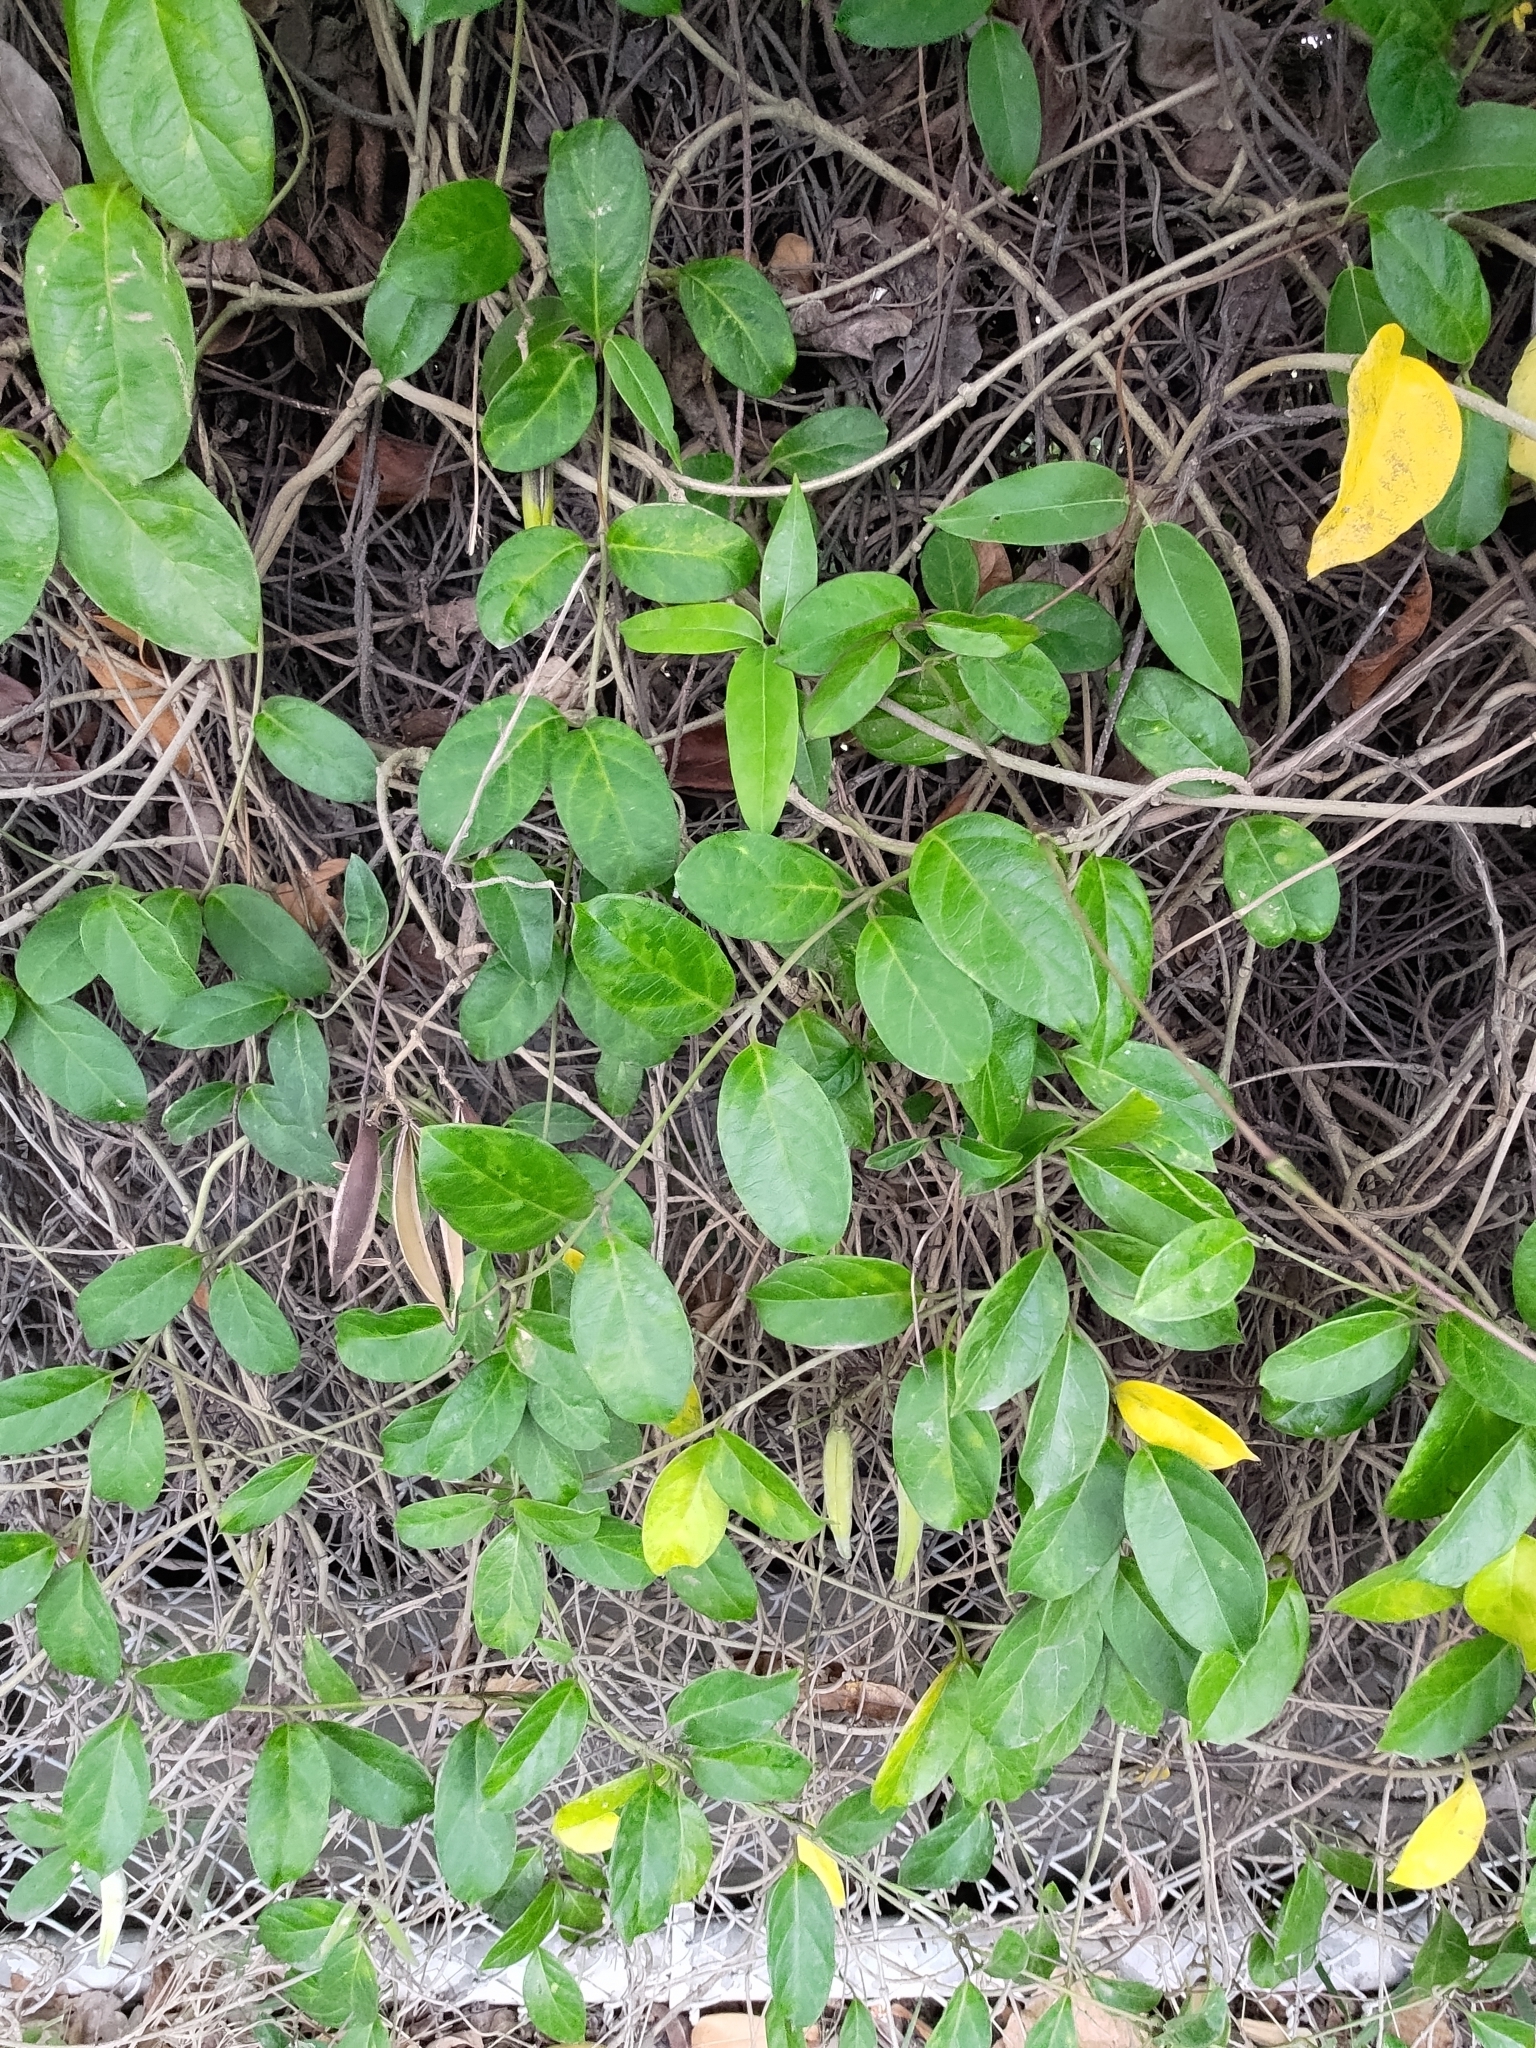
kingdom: Plantae
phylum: Tracheophyta
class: Magnoliopsida
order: Gentianales
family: Apocynaceae
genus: Gymnema
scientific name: Gymnema sylvestre
